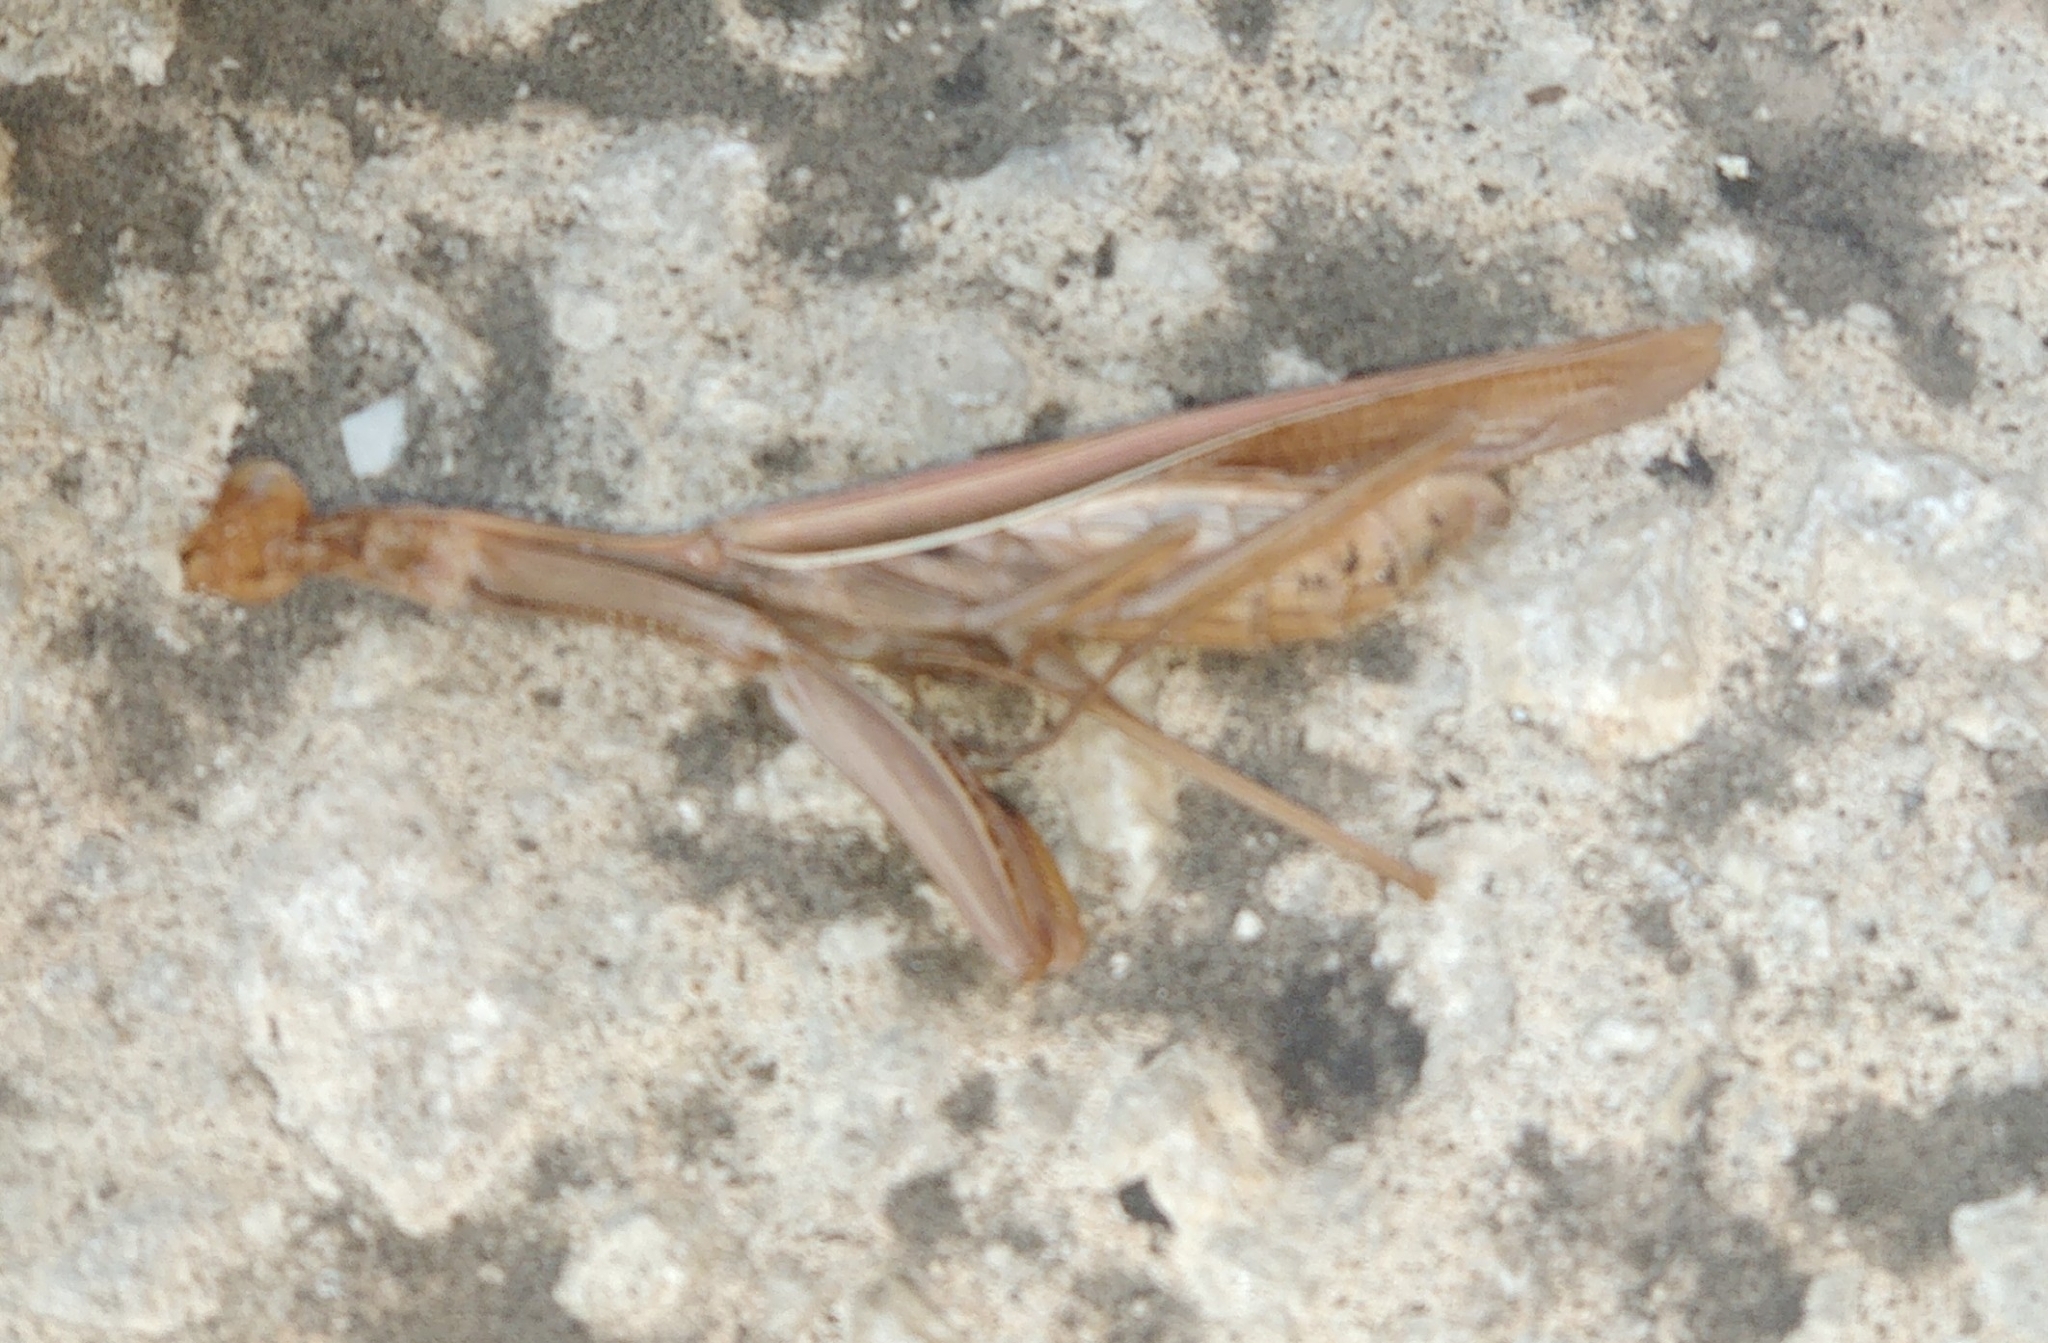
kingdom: Animalia
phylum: Arthropoda
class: Insecta
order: Mantodea
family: Mantidae
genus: Mantis
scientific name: Mantis religiosa
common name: Praying mantis
